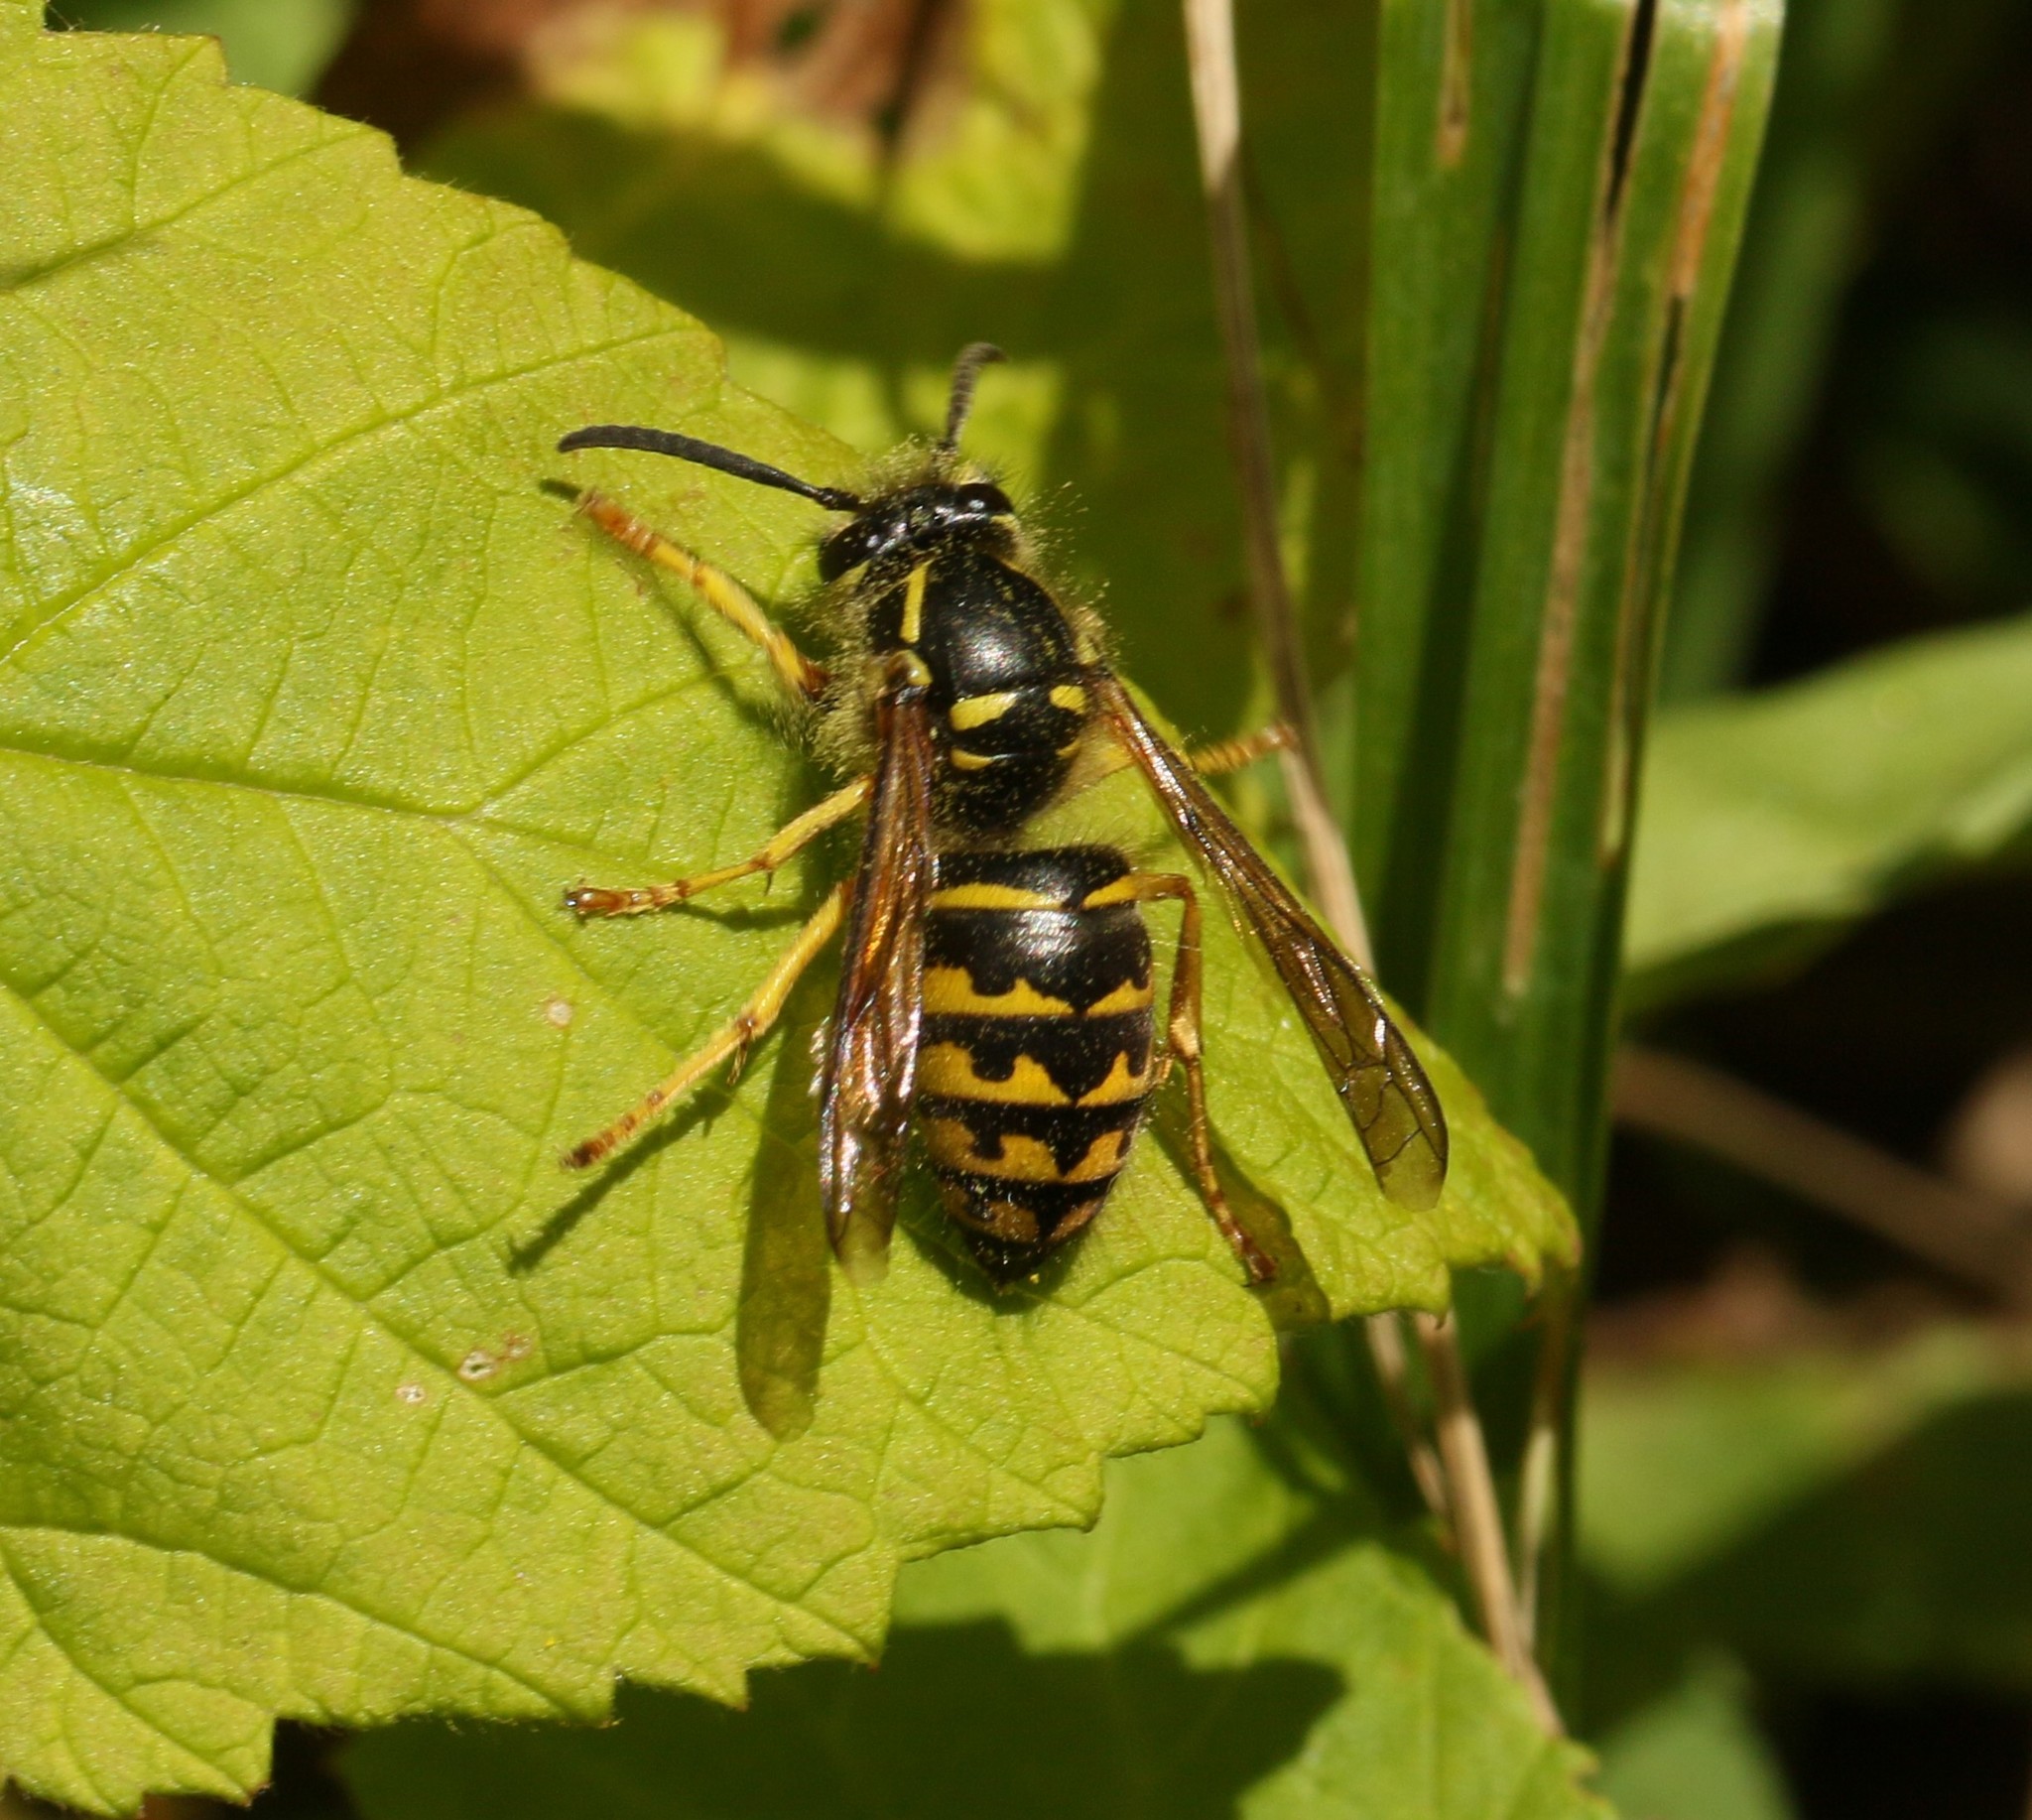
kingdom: Animalia
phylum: Arthropoda
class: Insecta
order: Hymenoptera
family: Vespidae
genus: Dolichovespula
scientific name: Dolichovespula arenaria
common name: Aerial yellowjacket
